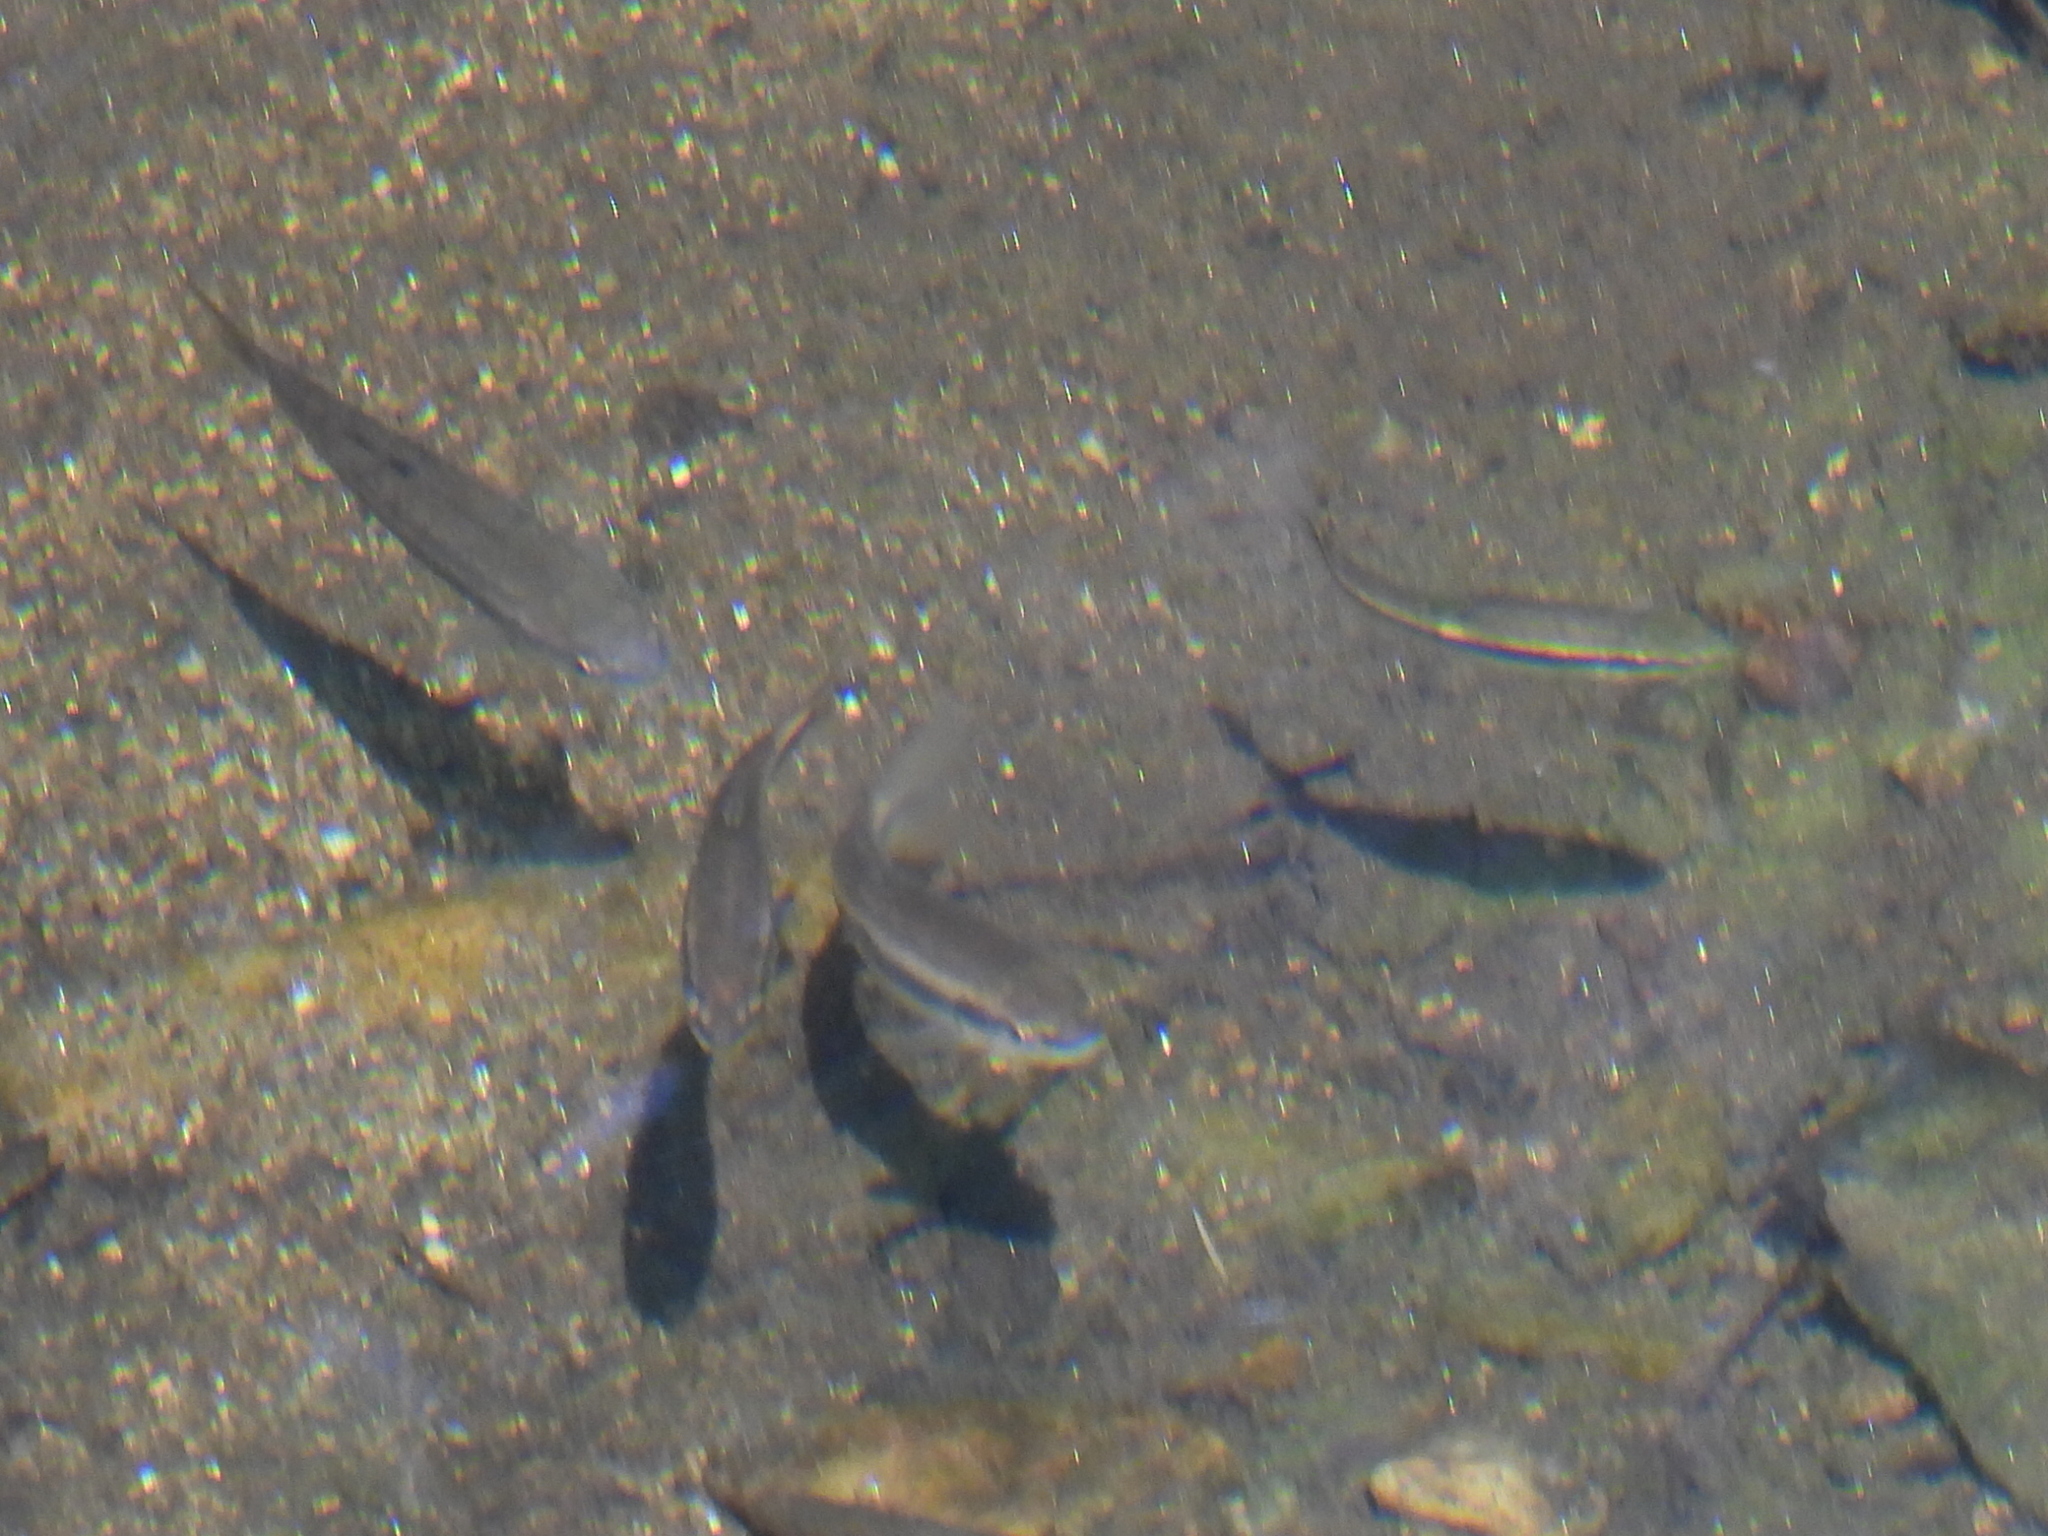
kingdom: Animalia
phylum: Chordata
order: Cypriniformes
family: Cyprinidae
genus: Rhinichthys
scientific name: Rhinichthys atratulus
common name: Eastern blacknose dace
